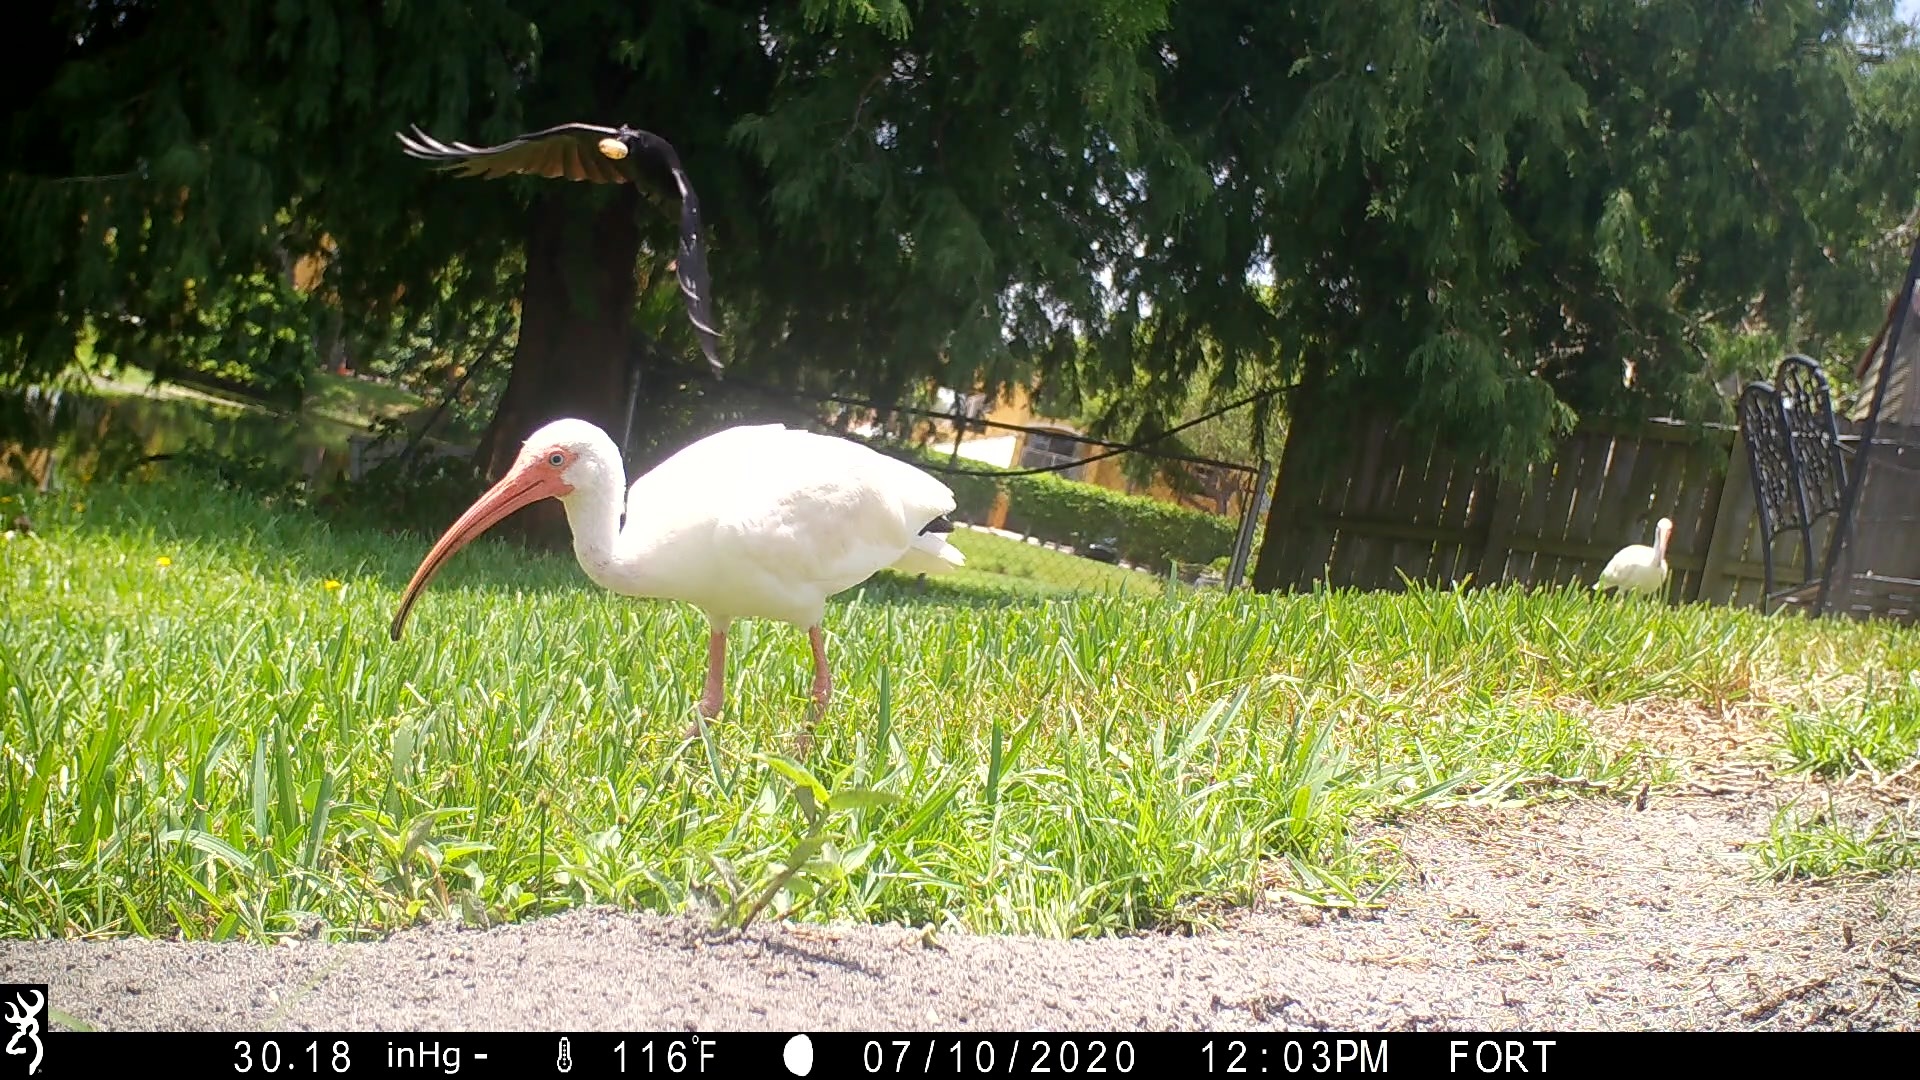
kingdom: Animalia
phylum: Chordata
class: Aves
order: Pelecaniformes
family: Threskiornithidae
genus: Eudocimus
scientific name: Eudocimus albus
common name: White ibis
